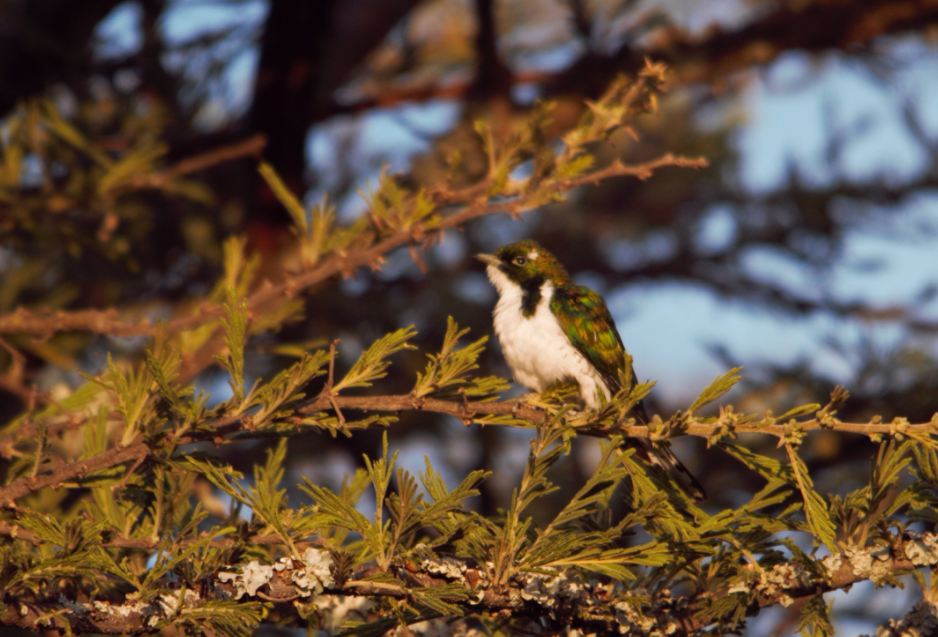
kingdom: Animalia
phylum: Chordata
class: Aves
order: Cuculiformes
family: Cuculidae
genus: Chrysococcyx
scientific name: Chrysococcyx klaas
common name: Klaas's cuckoo
